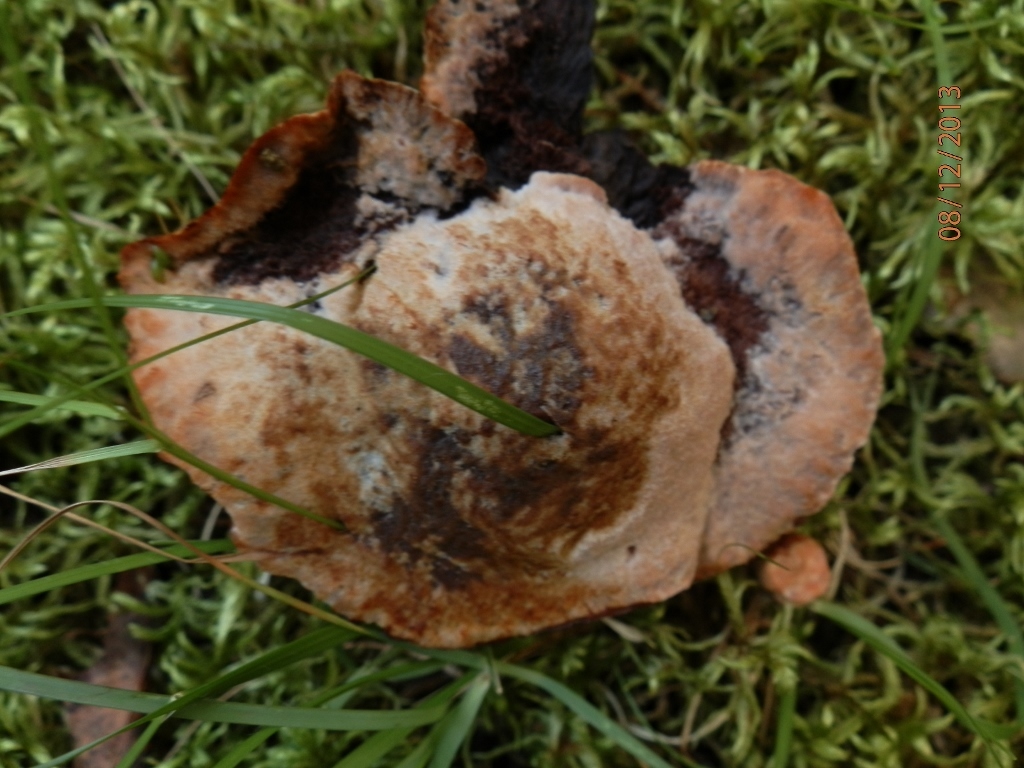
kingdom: Fungi
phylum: Basidiomycota
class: Agaricomycetes
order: Thelephorales
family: Bankeraceae
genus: Hydnellum
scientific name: Hydnellum peckii
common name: Devil's tooth
